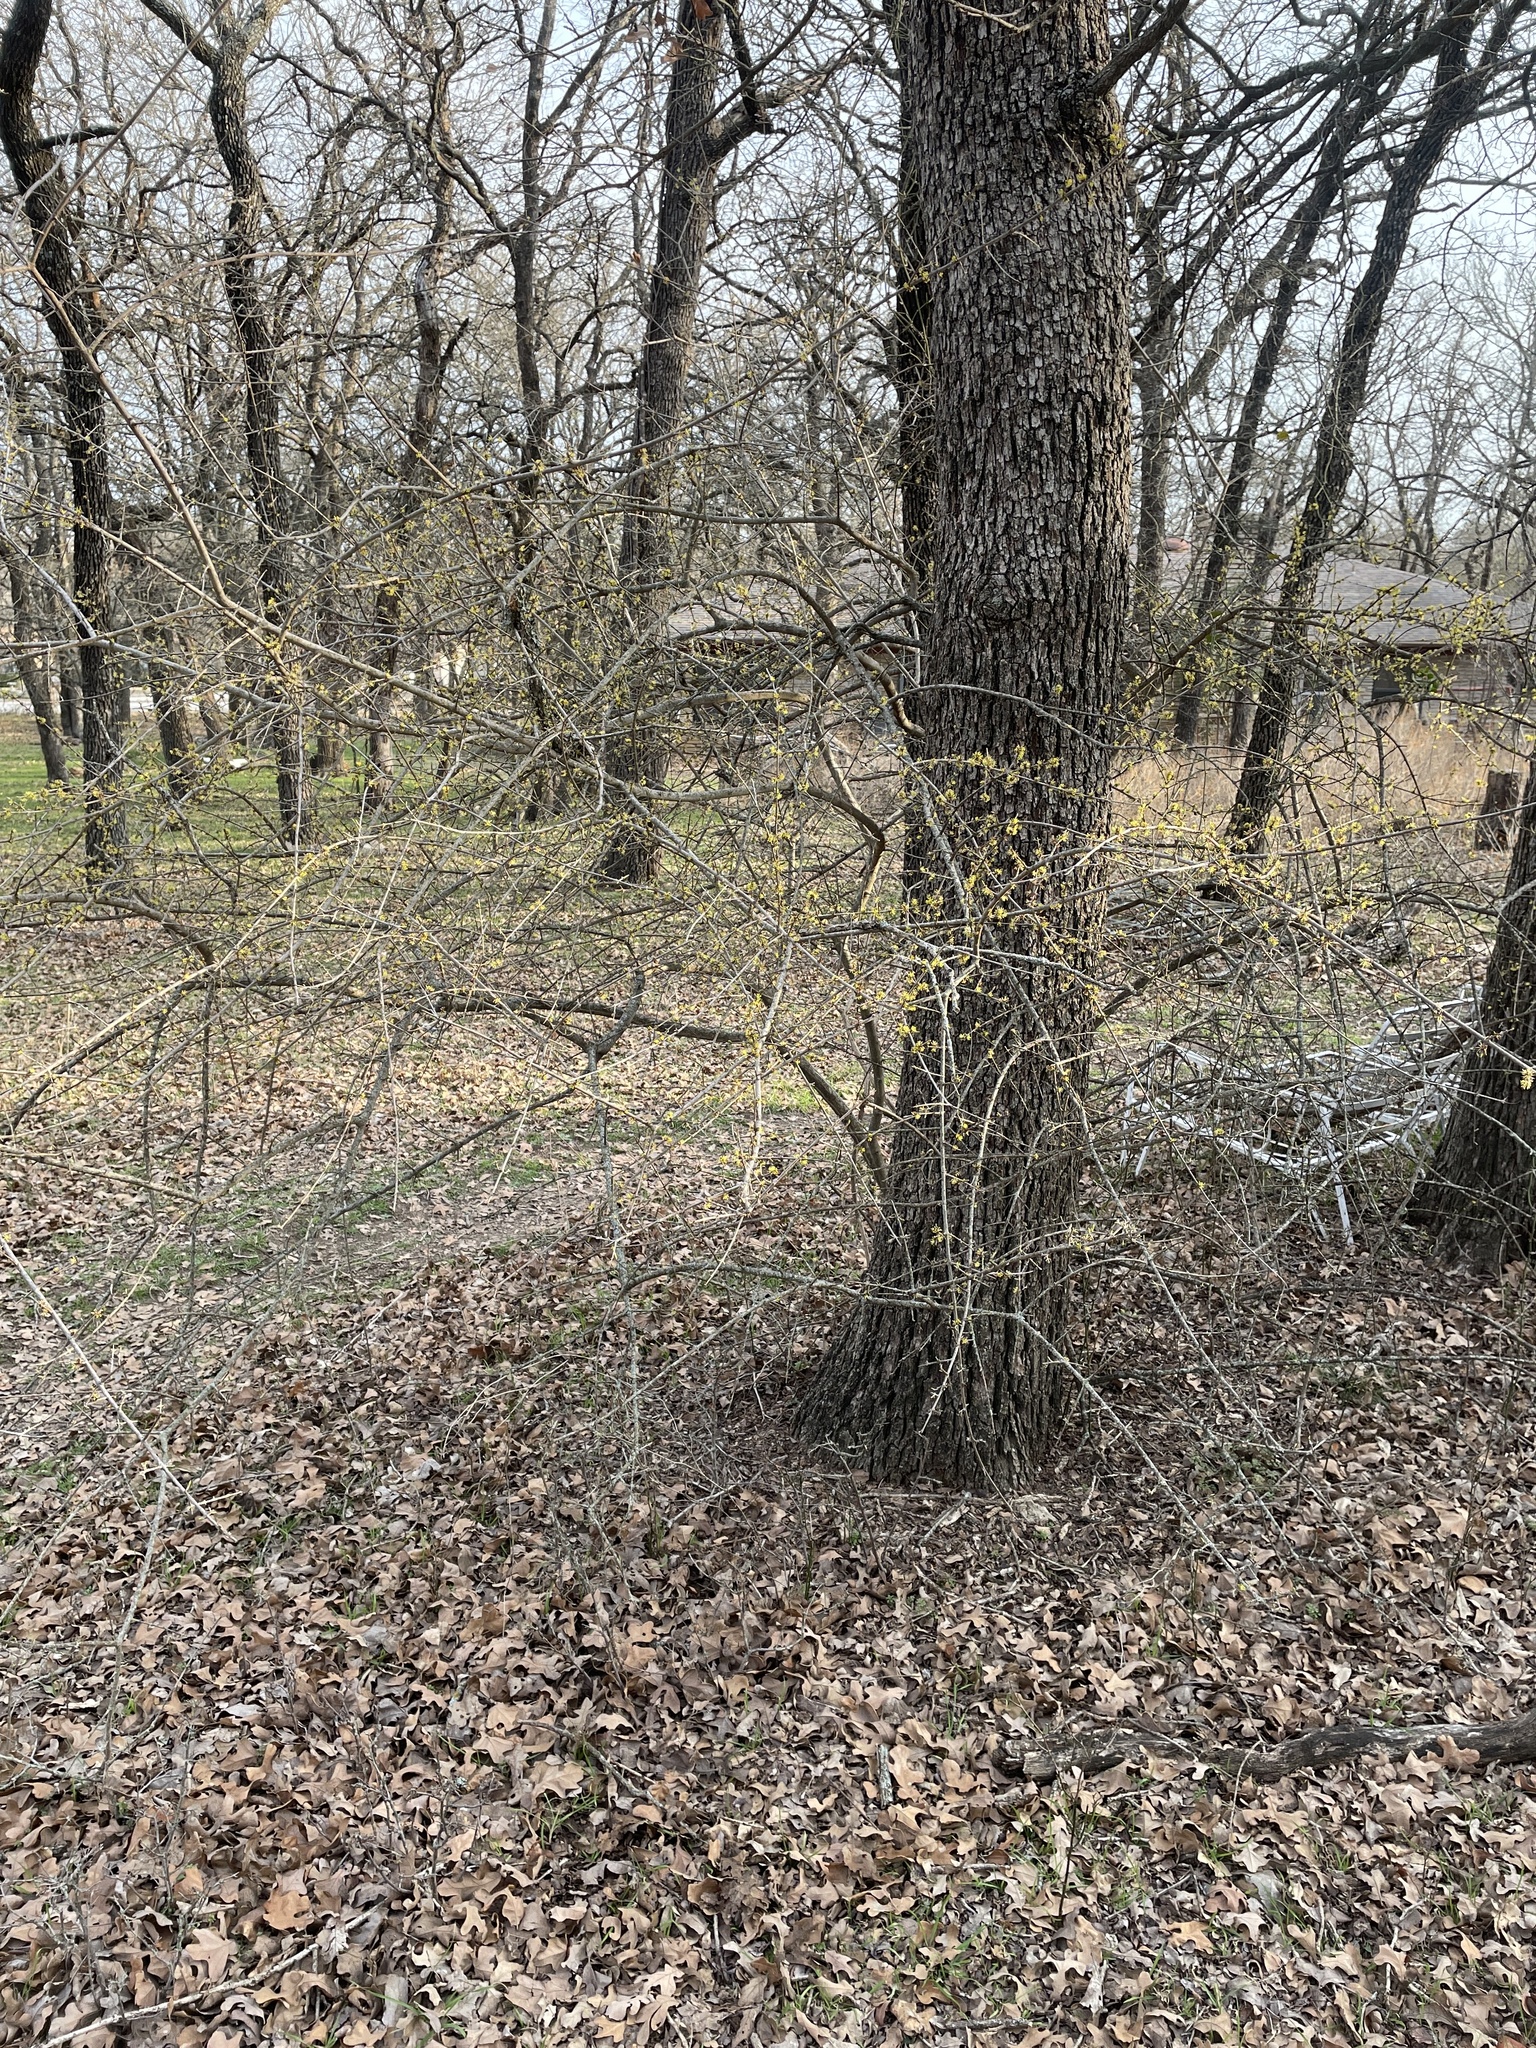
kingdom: Plantae
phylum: Tracheophyta
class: Magnoliopsida
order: Lamiales
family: Oleaceae
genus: Forestiera
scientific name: Forestiera pubescens
